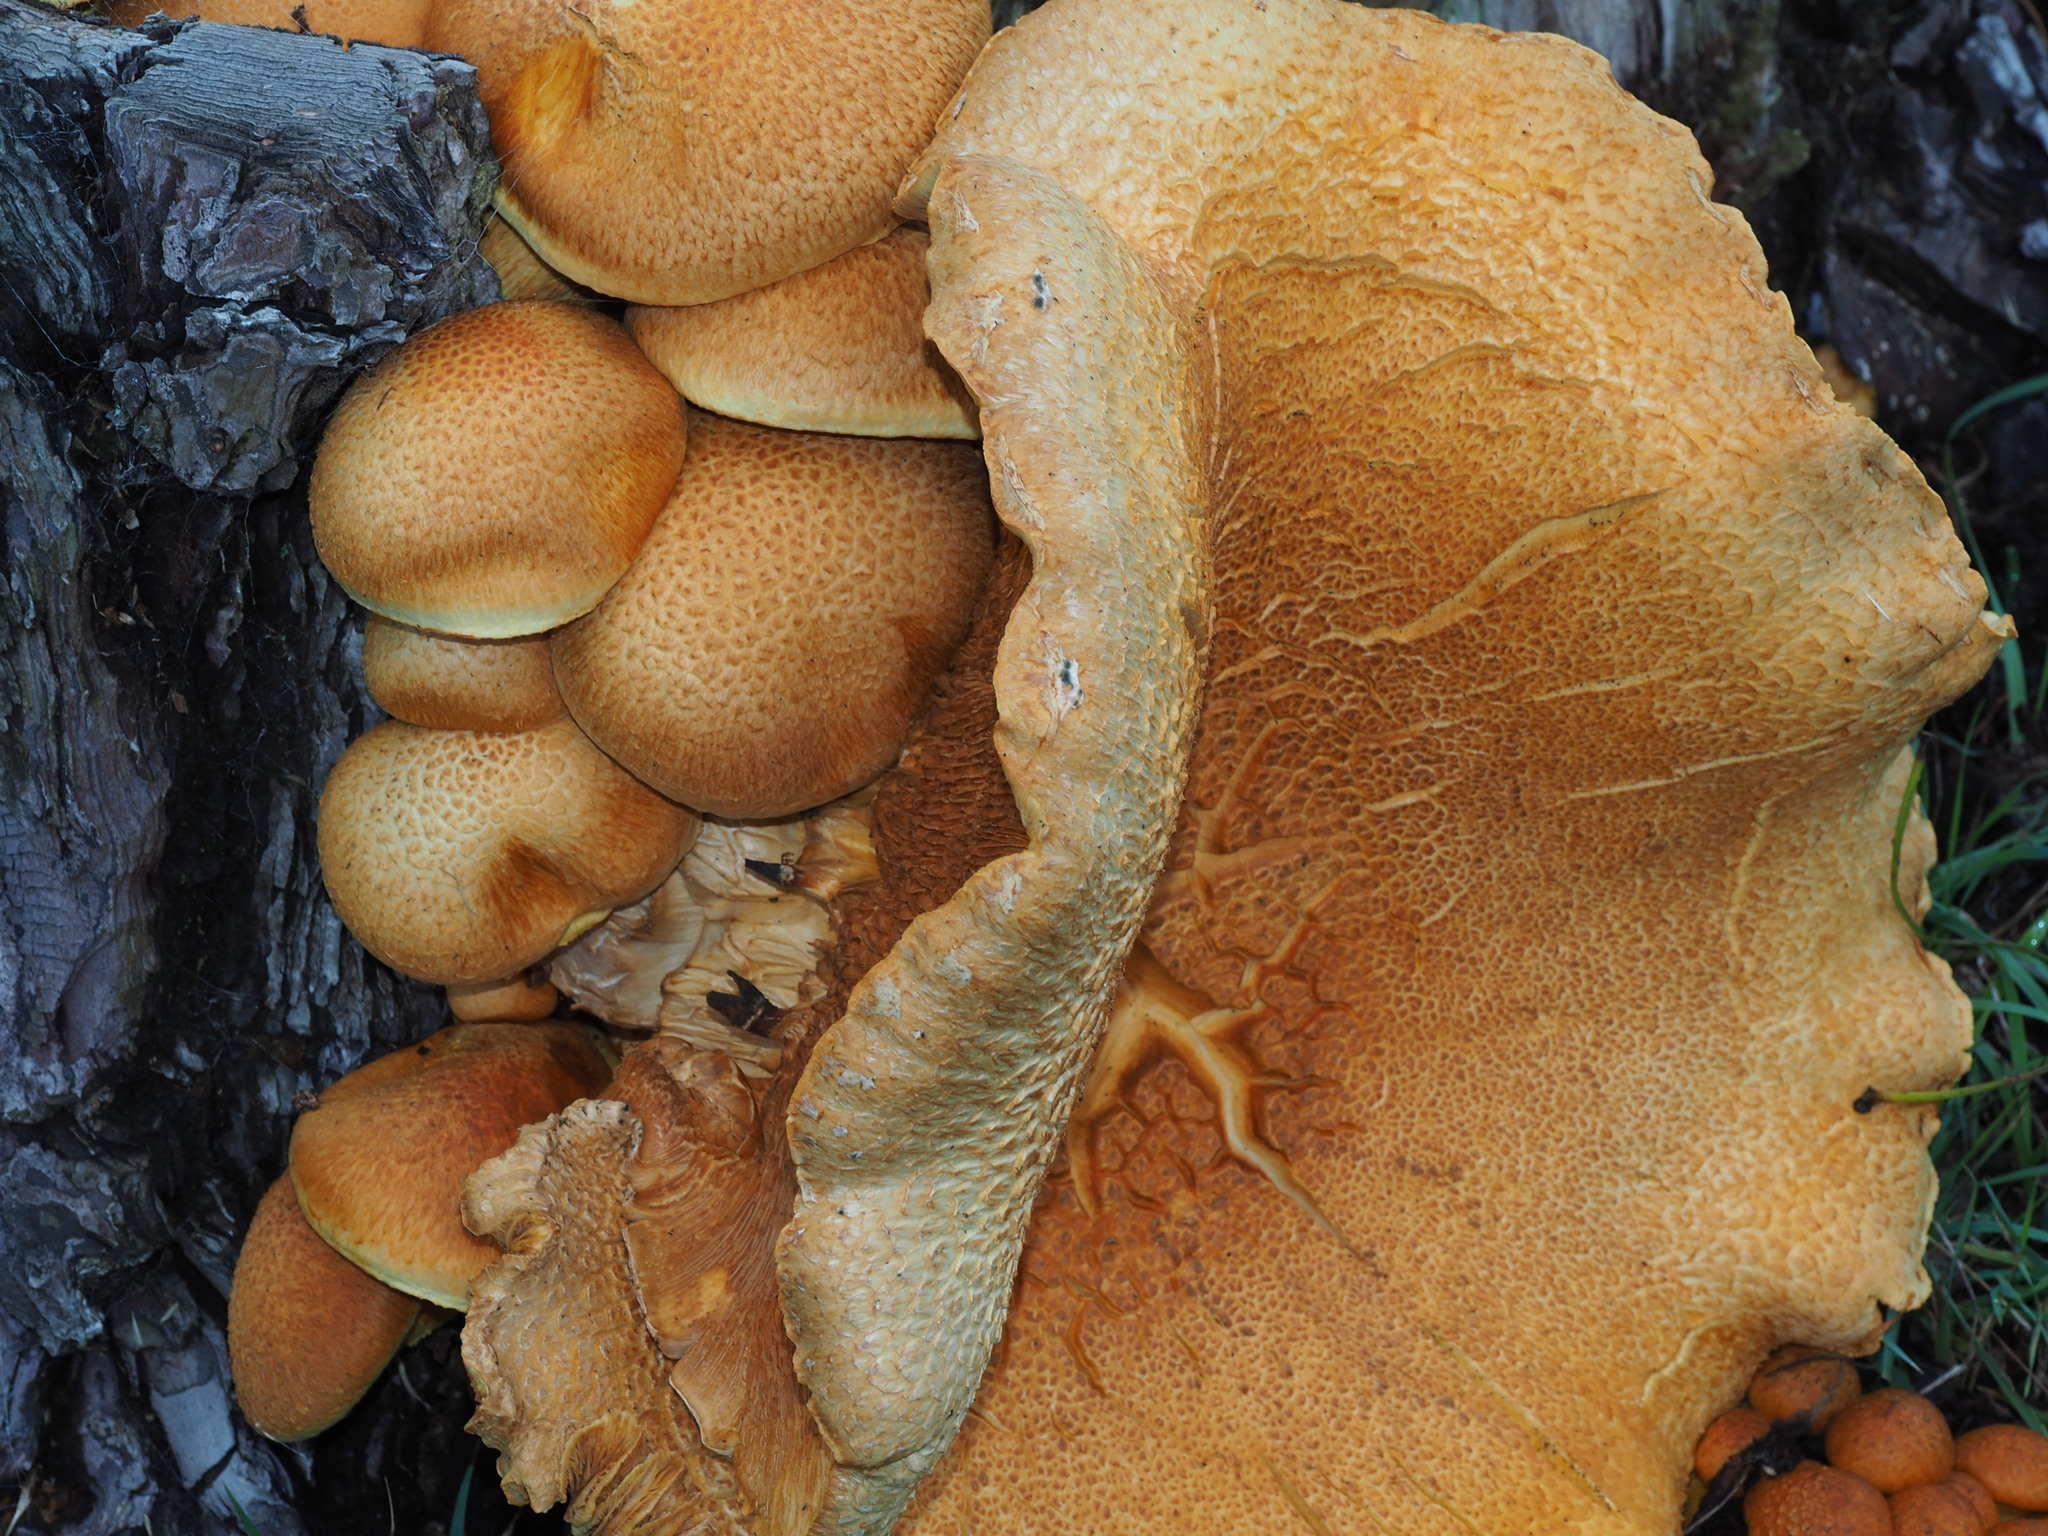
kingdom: Fungi
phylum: Basidiomycota
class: Agaricomycetes
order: Agaricales
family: Hymenogastraceae
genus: Gymnopilus
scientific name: Gymnopilus junonius
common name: Spectacular rustgill
